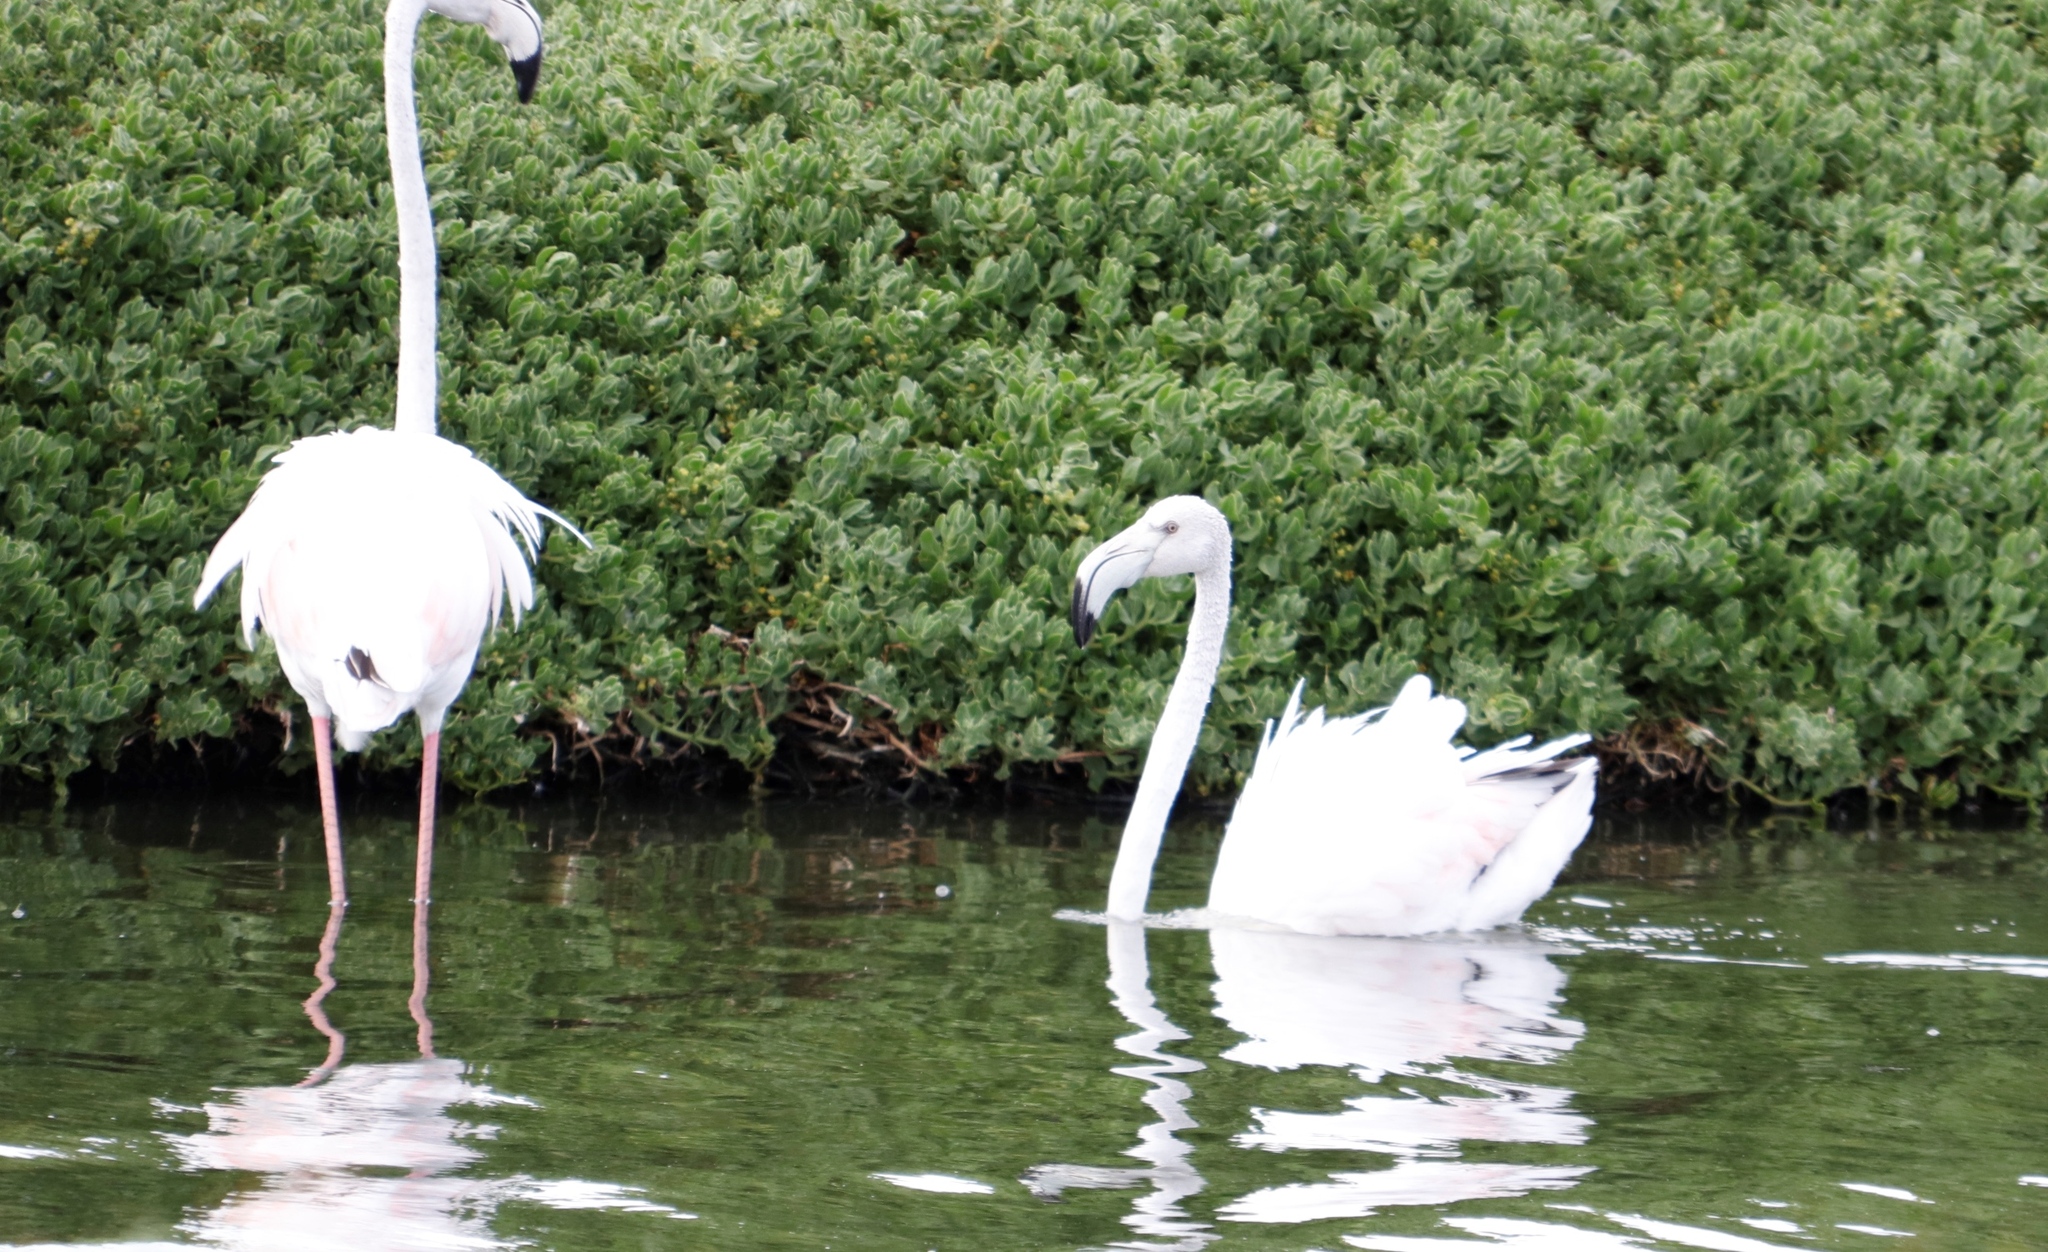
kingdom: Animalia
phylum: Chordata
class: Aves
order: Phoenicopteriformes
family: Phoenicopteridae
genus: Phoenicopterus
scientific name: Phoenicopterus roseus
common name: Greater flamingo
